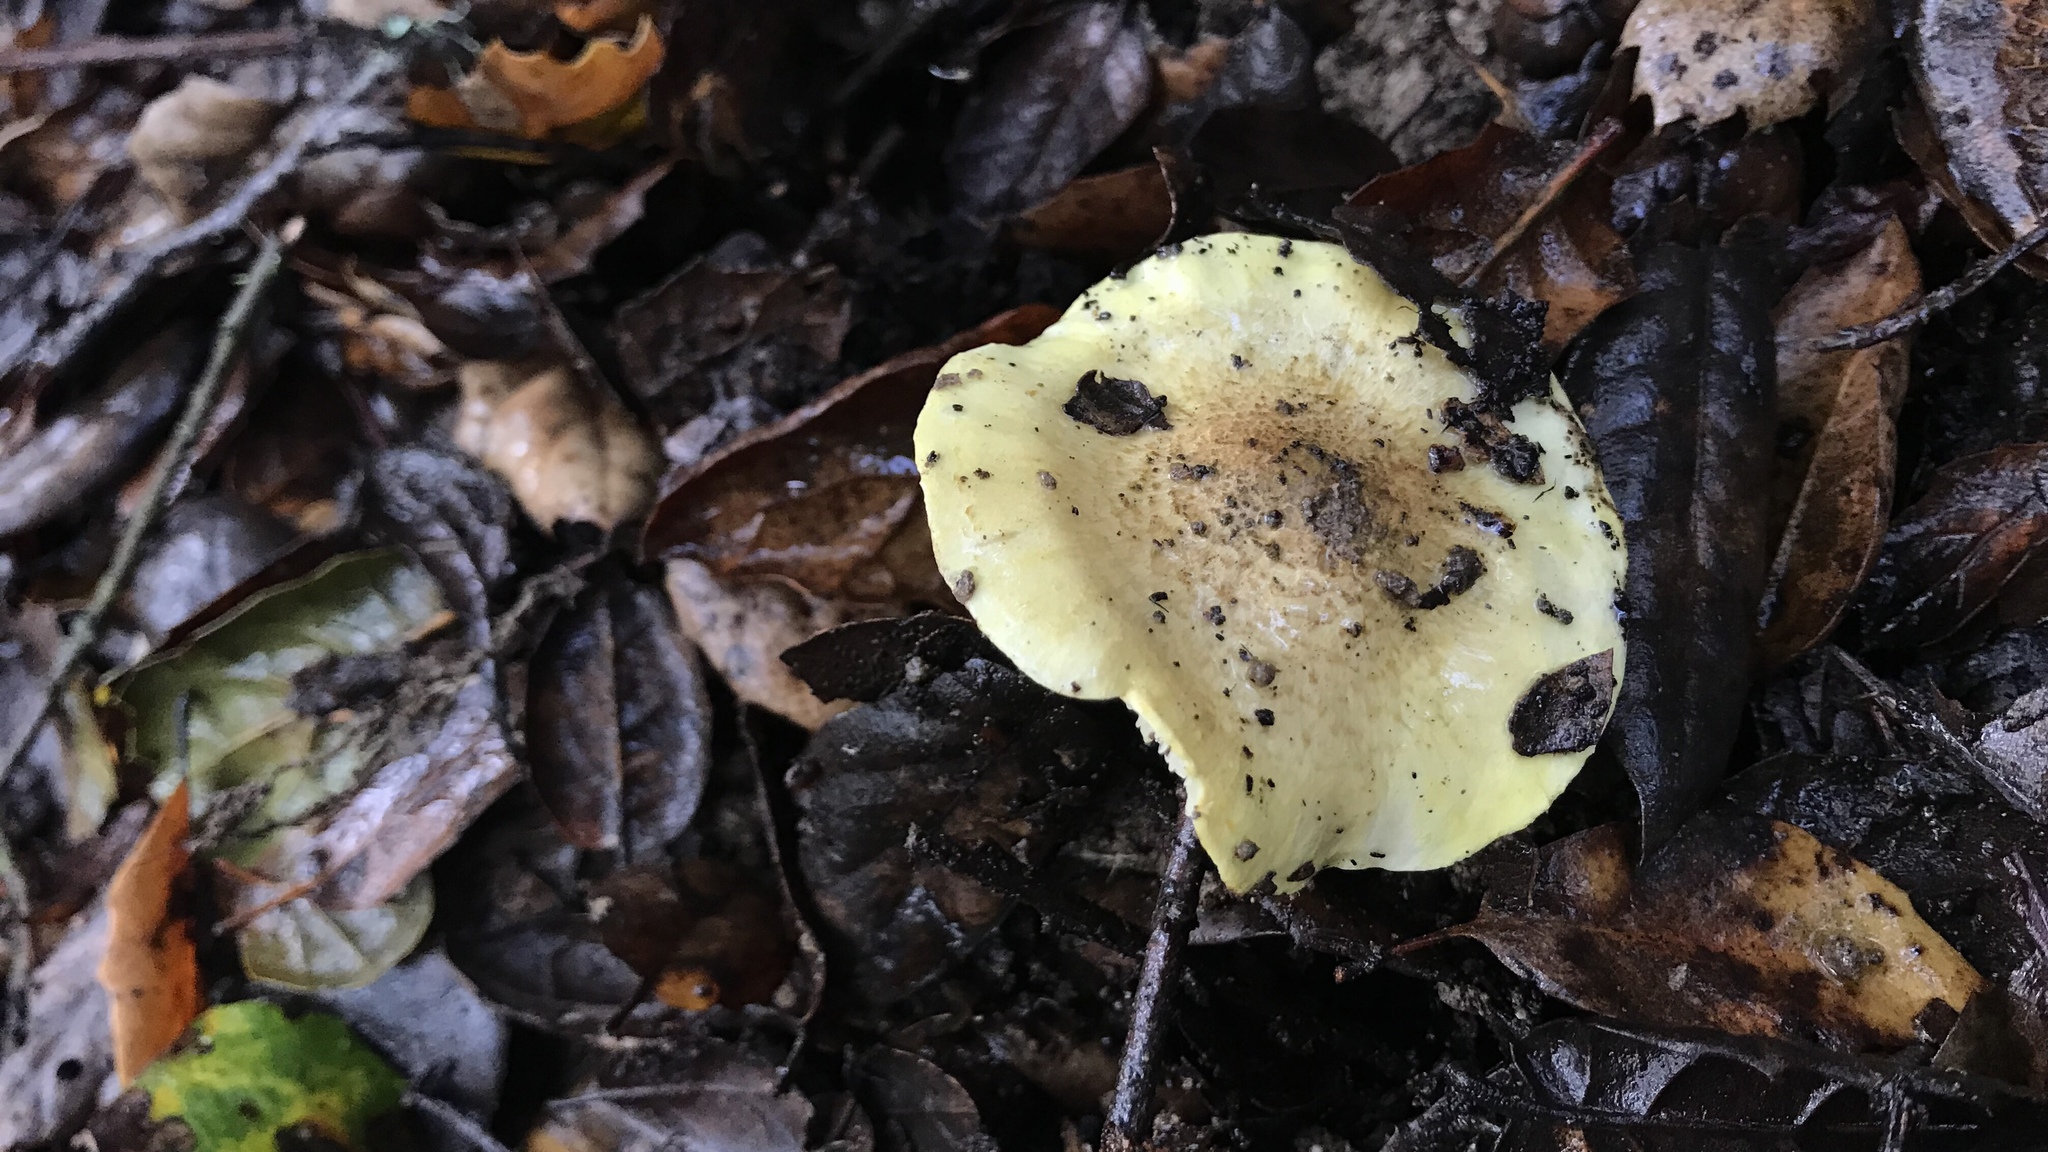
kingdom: Fungi
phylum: Basidiomycota
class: Agaricomycetes
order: Agaricales
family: Tricholomataceae
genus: Melanoleuca
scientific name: Melanoleuca yatesii
